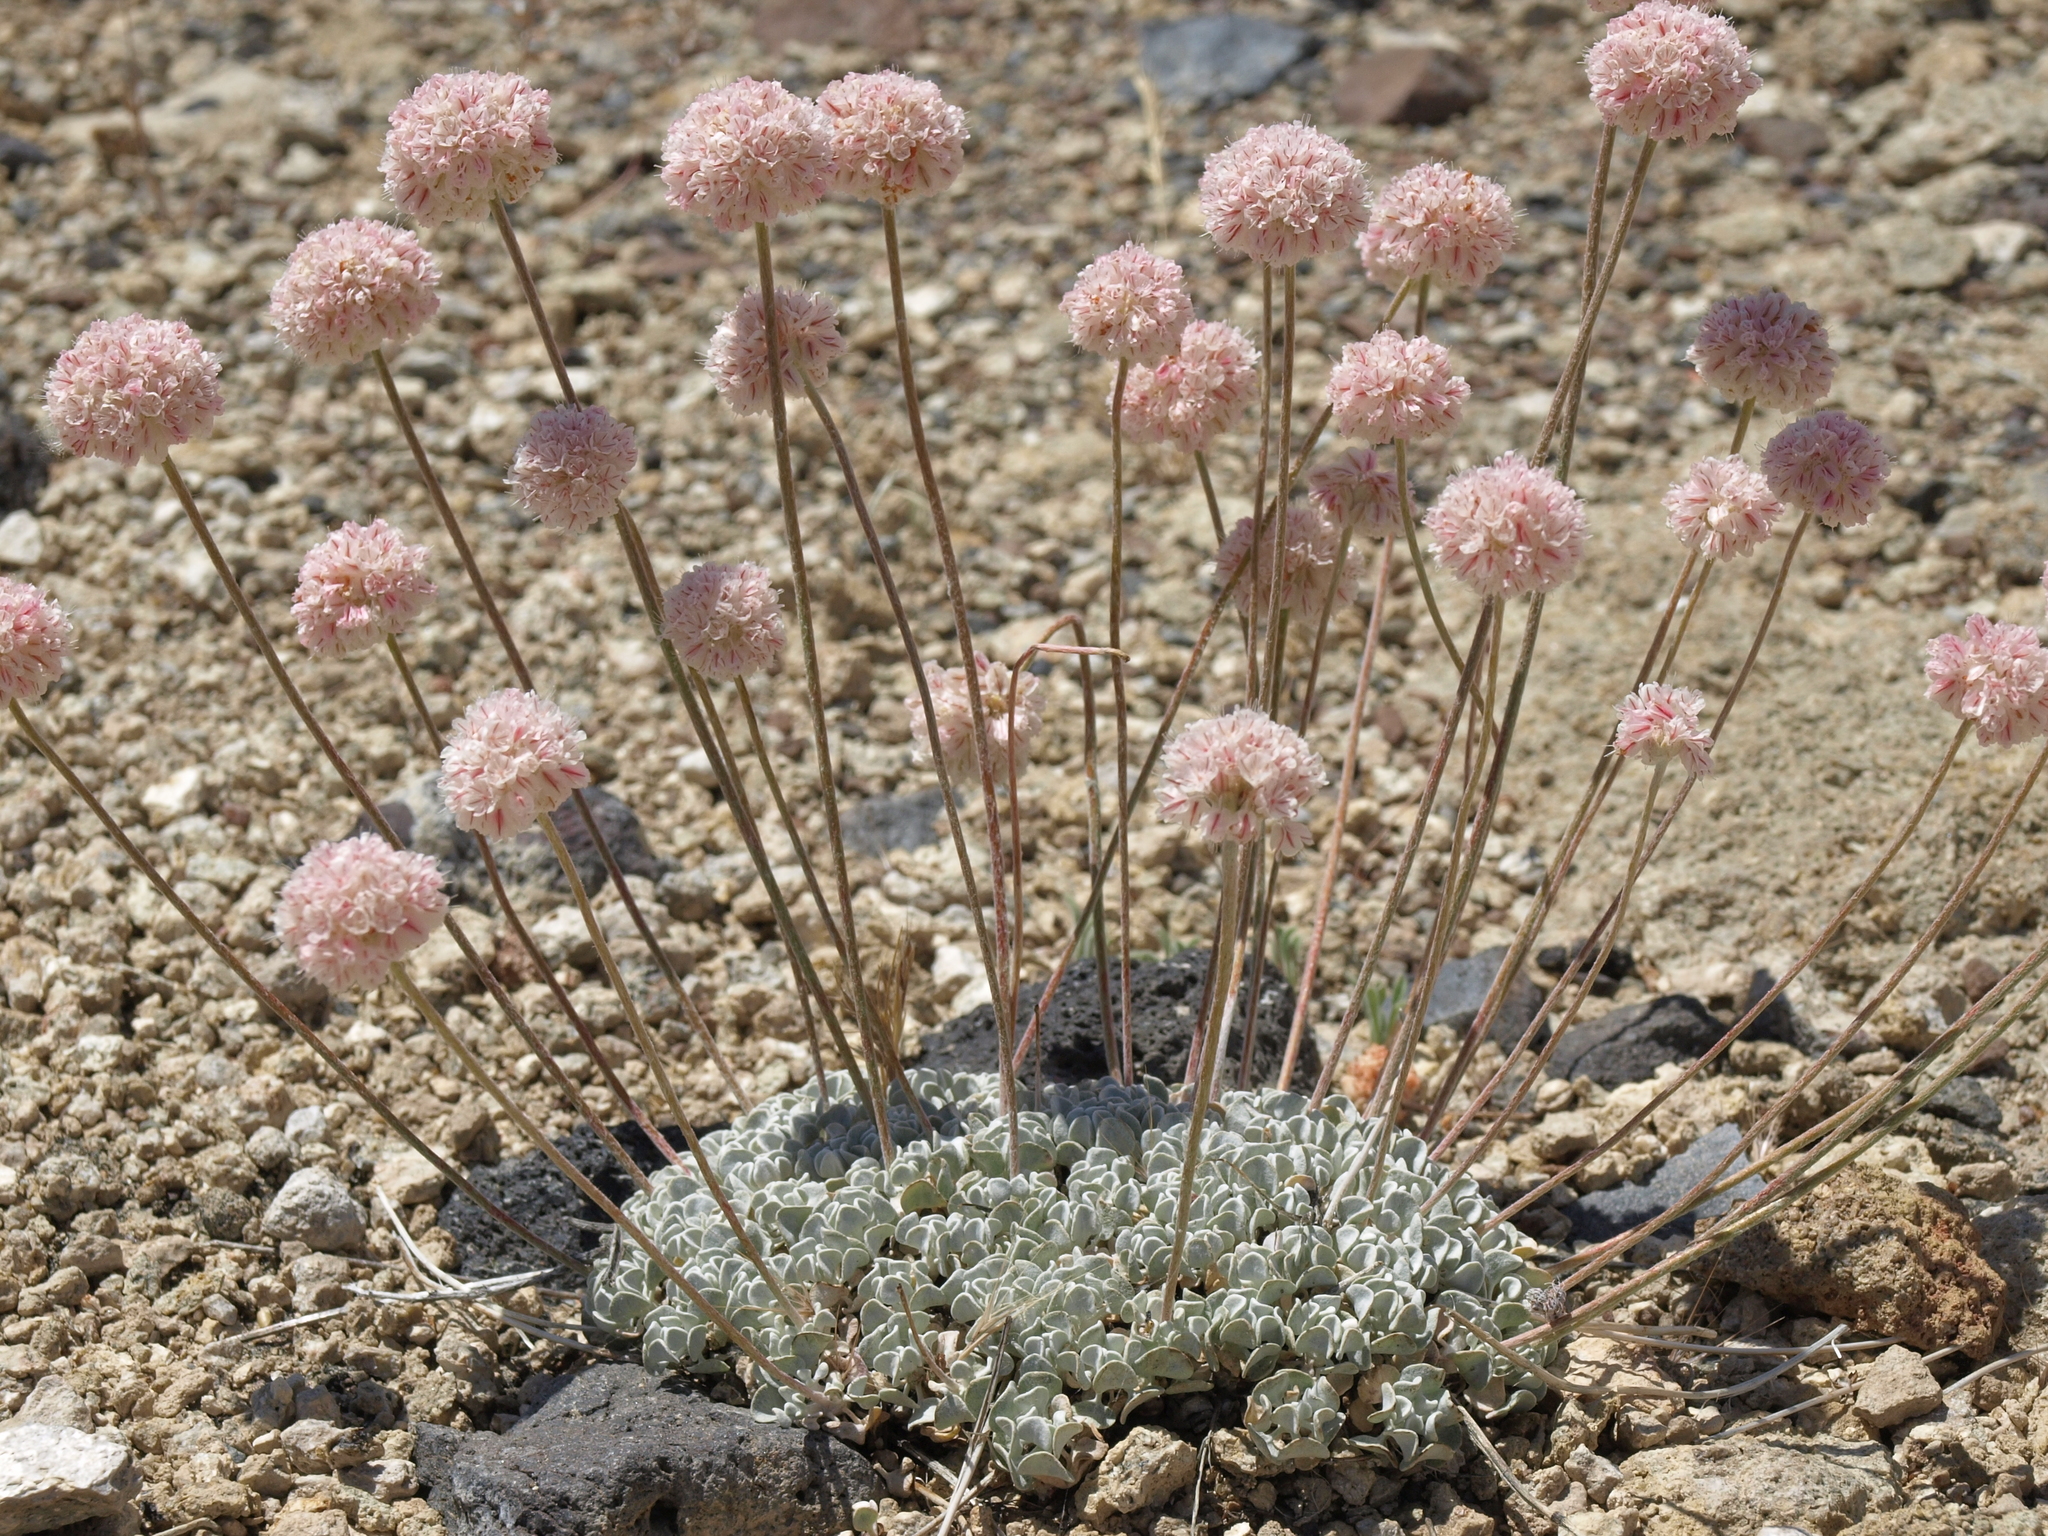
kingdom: Plantae
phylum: Tracheophyta
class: Magnoliopsida
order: Caryophyllales
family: Polygonaceae
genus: Eriogonum
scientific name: Eriogonum ovalifolium
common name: Cushion buckwheat
